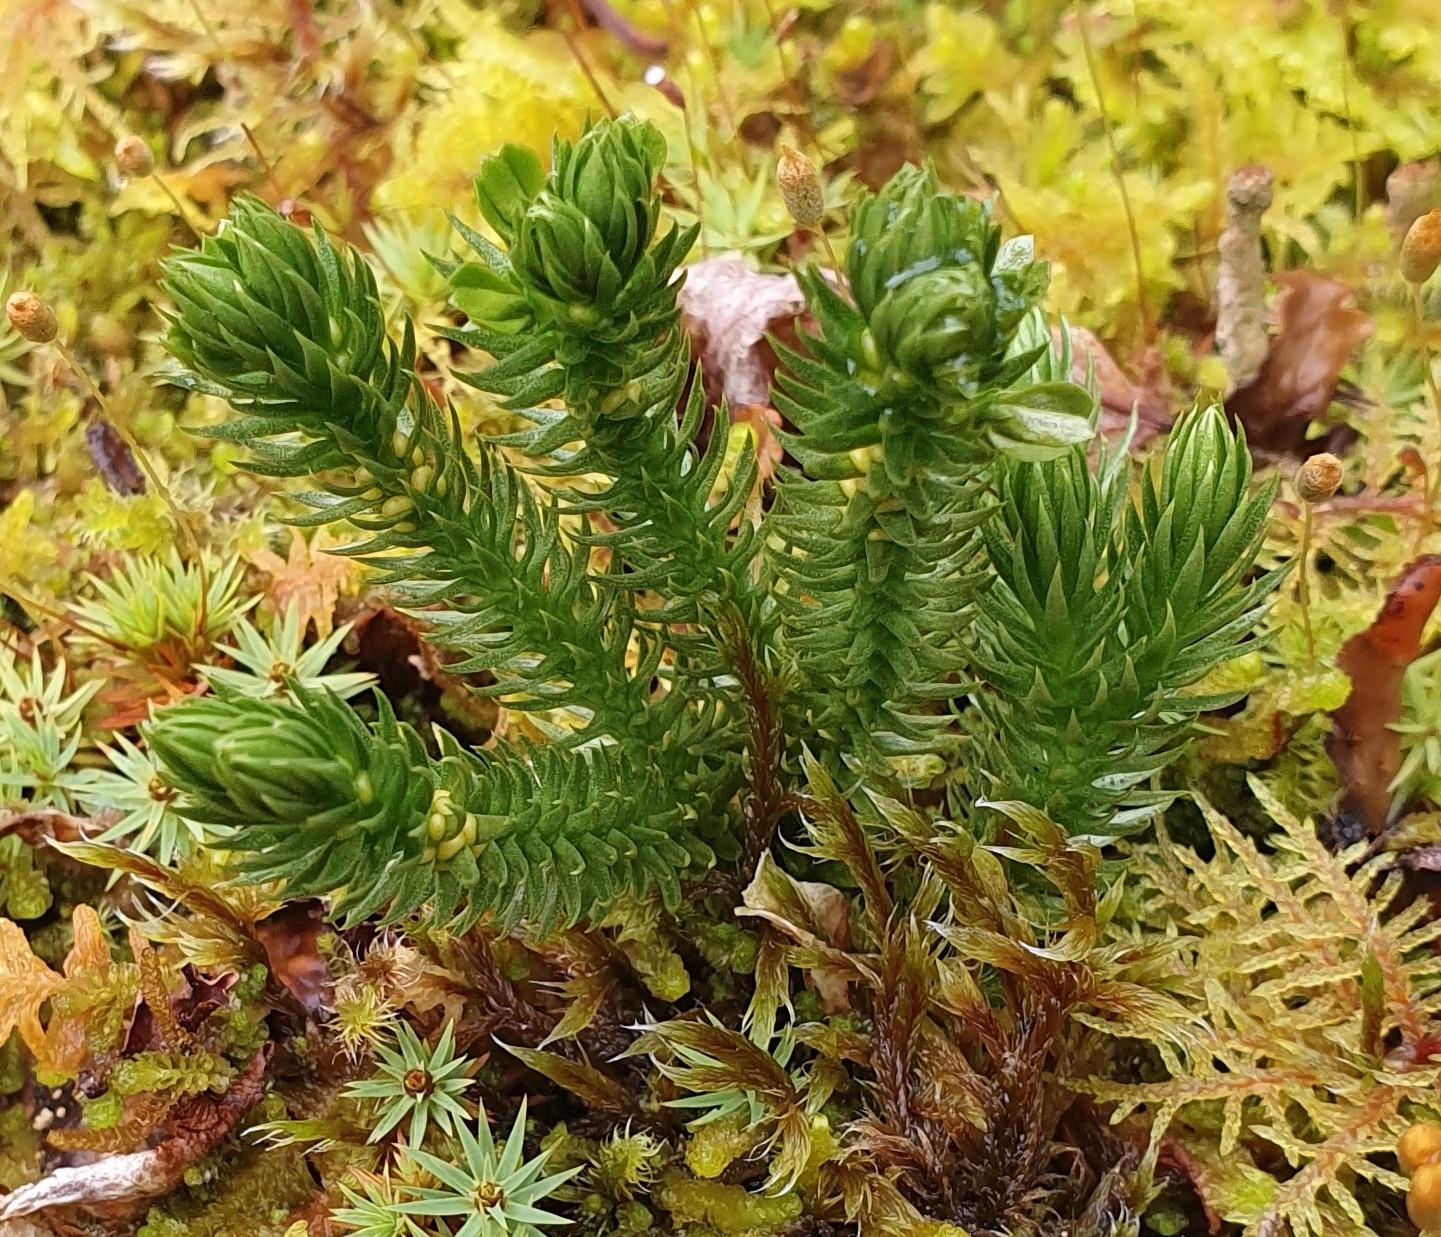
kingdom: Plantae
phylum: Tracheophyta
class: Lycopodiopsida
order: Lycopodiales
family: Lycopodiaceae
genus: Huperzia
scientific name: Huperzia selago
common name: Northern firmoss
